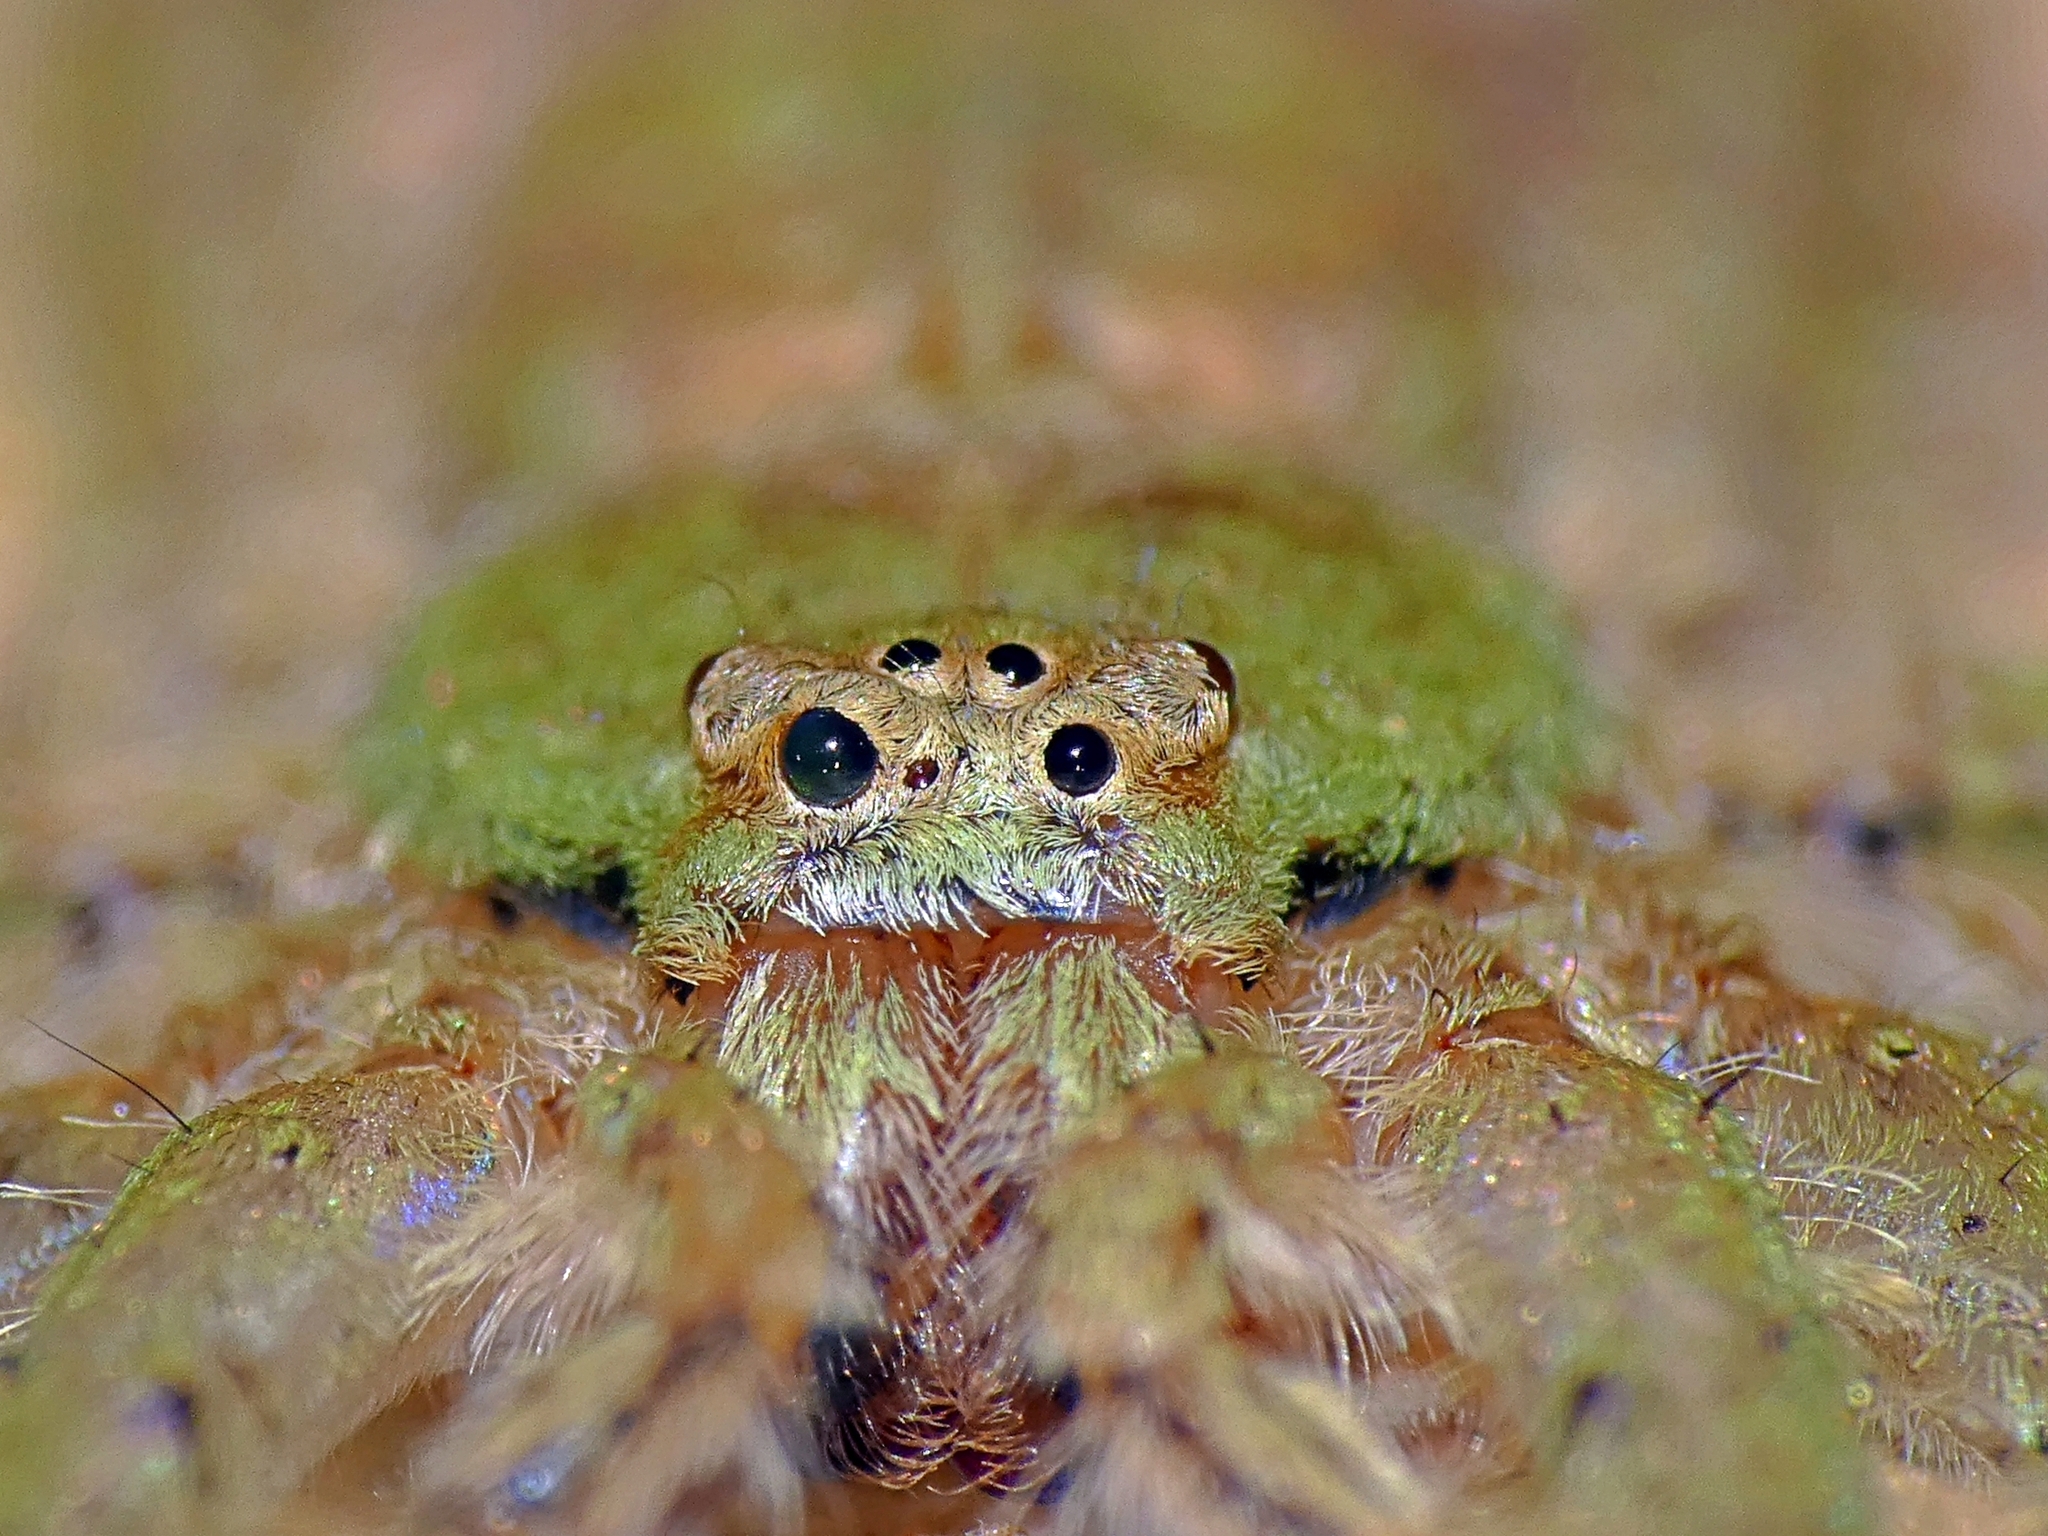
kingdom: Animalia
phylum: Arthropoda
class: Arachnida
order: Araneae
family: Sparassidae
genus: Pandercetes
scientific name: Pandercetes gracilis
